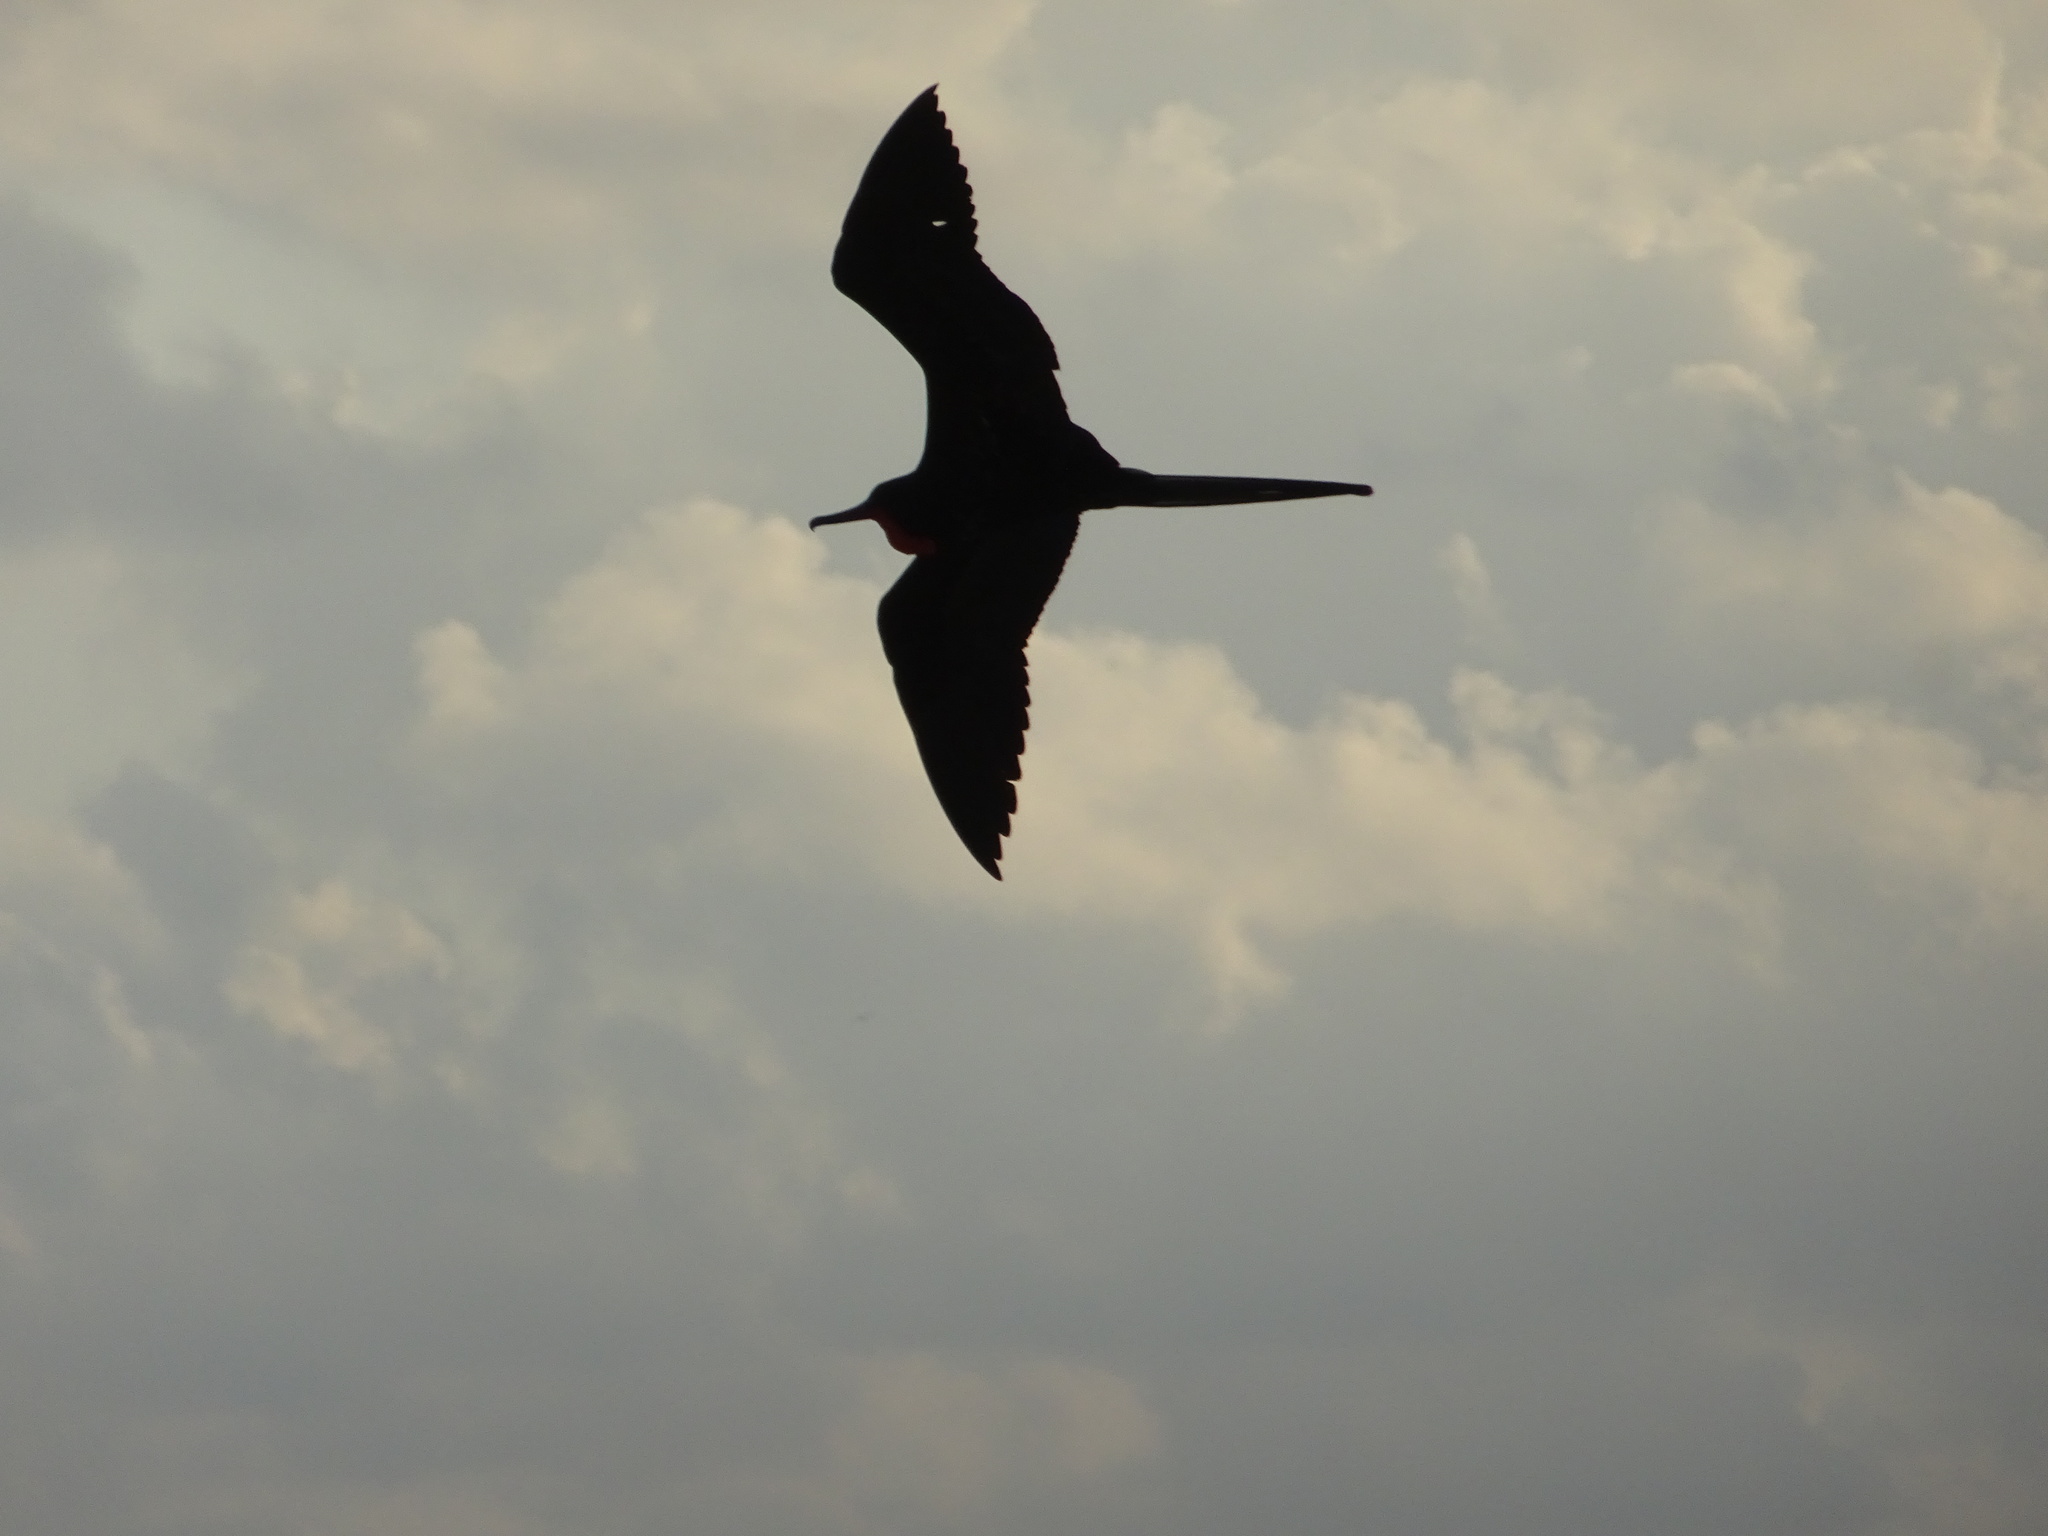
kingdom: Animalia
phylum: Chordata
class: Aves
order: Suliformes
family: Fregatidae
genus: Fregata
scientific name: Fregata magnificens
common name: Magnificent frigatebird
